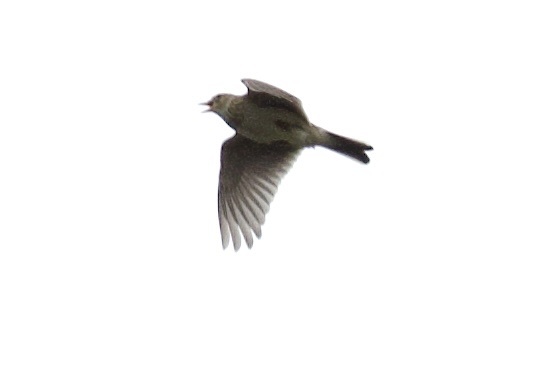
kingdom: Animalia
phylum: Chordata
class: Aves
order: Passeriformes
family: Alaudidae
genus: Alauda
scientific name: Alauda arvensis
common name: Eurasian skylark
